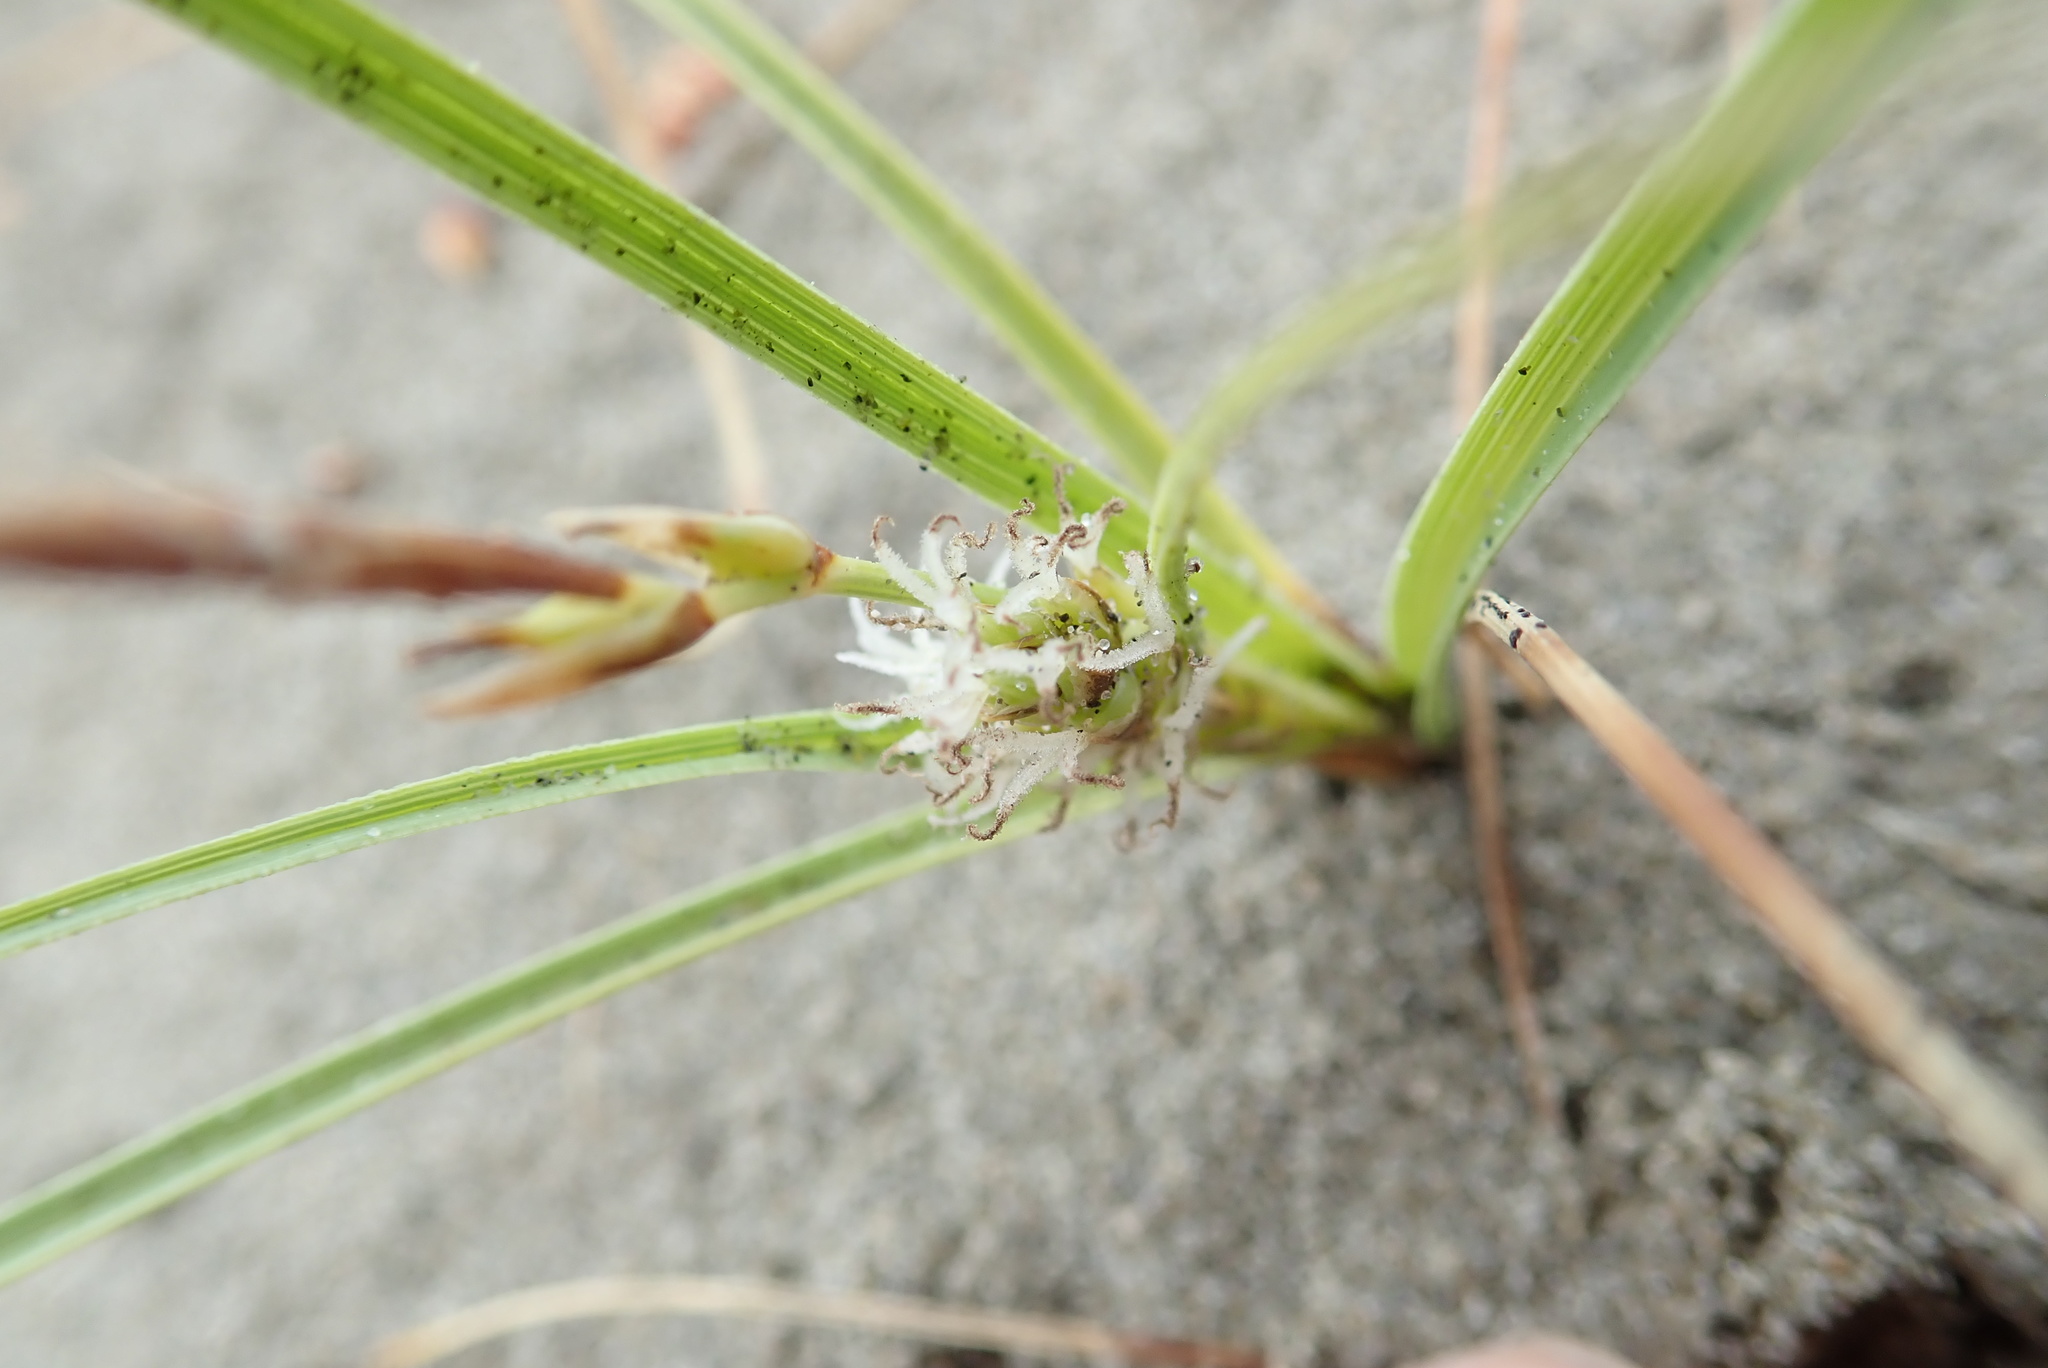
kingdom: Plantae
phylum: Tracheophyta
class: Liliopsida
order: Poales
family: Cyperaceae
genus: Carex
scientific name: Carex pumila
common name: Dwarf sedge
